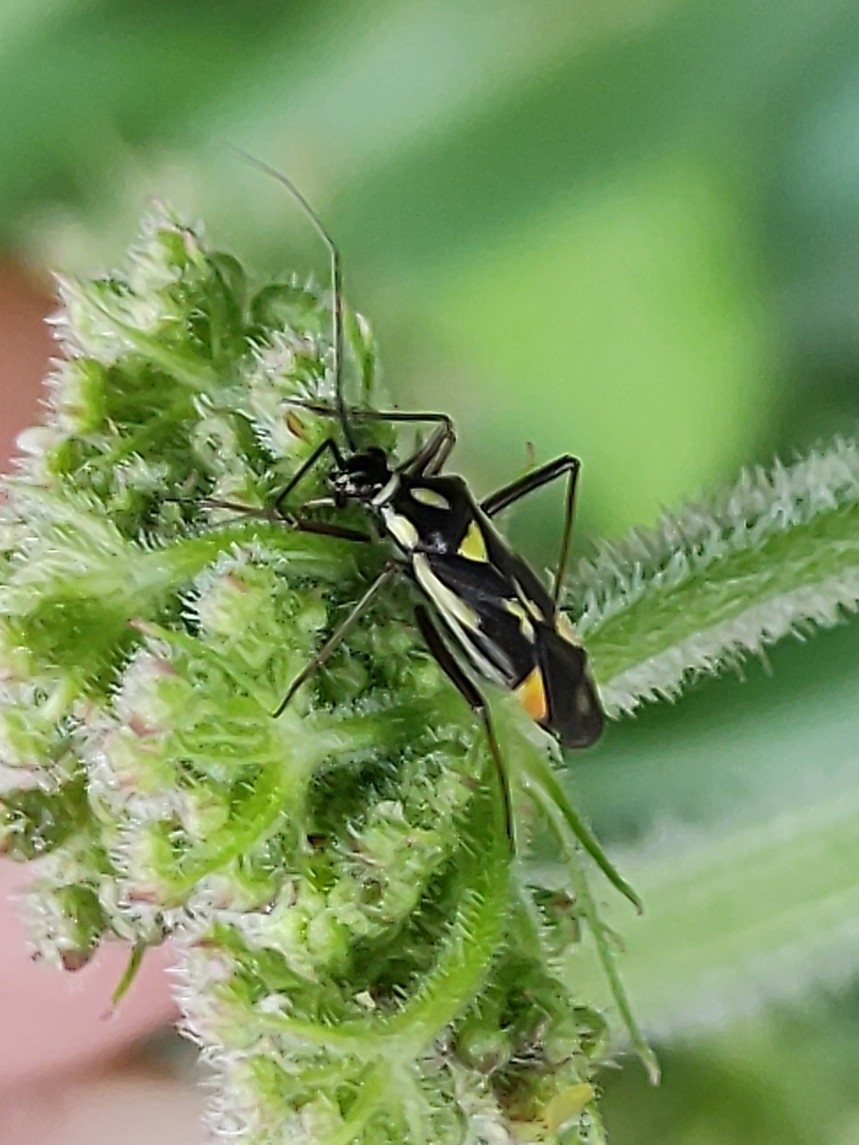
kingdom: Animalia
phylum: Arthropoda
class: Insecta
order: Hemiptera
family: Miridae
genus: Grypocoris
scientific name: Grypocoris stysi
